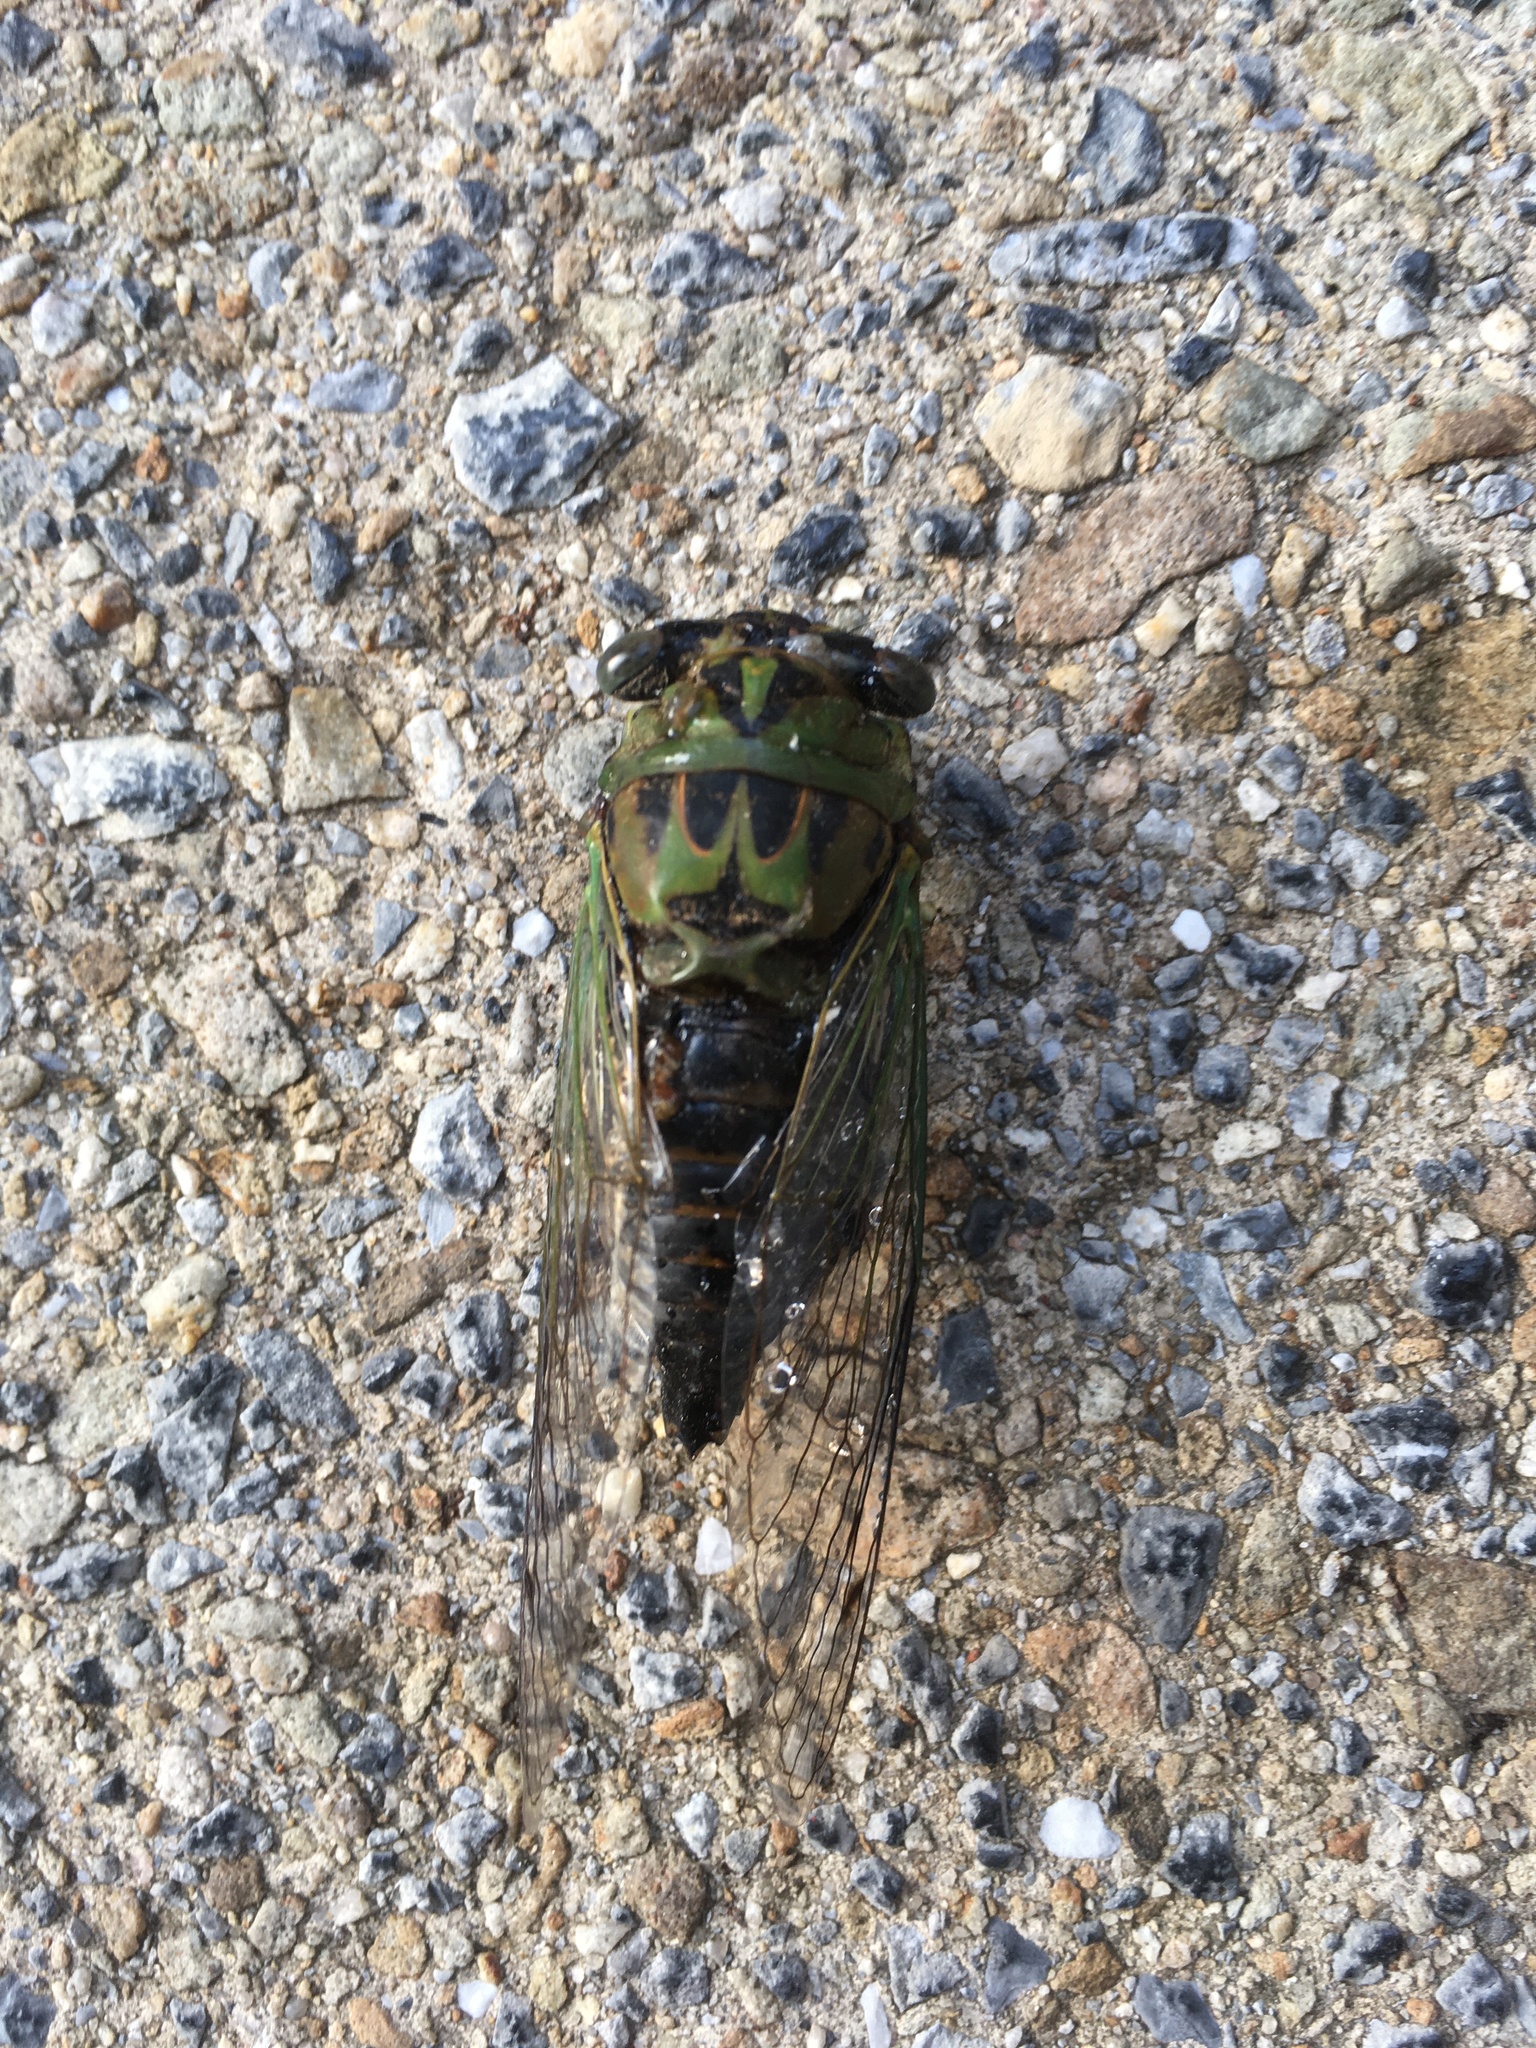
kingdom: Animalia
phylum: Arthropoda
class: Insecta
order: Hemiptera
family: Cicadidae
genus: Neotibicen
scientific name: Neotibicen winnemanna
